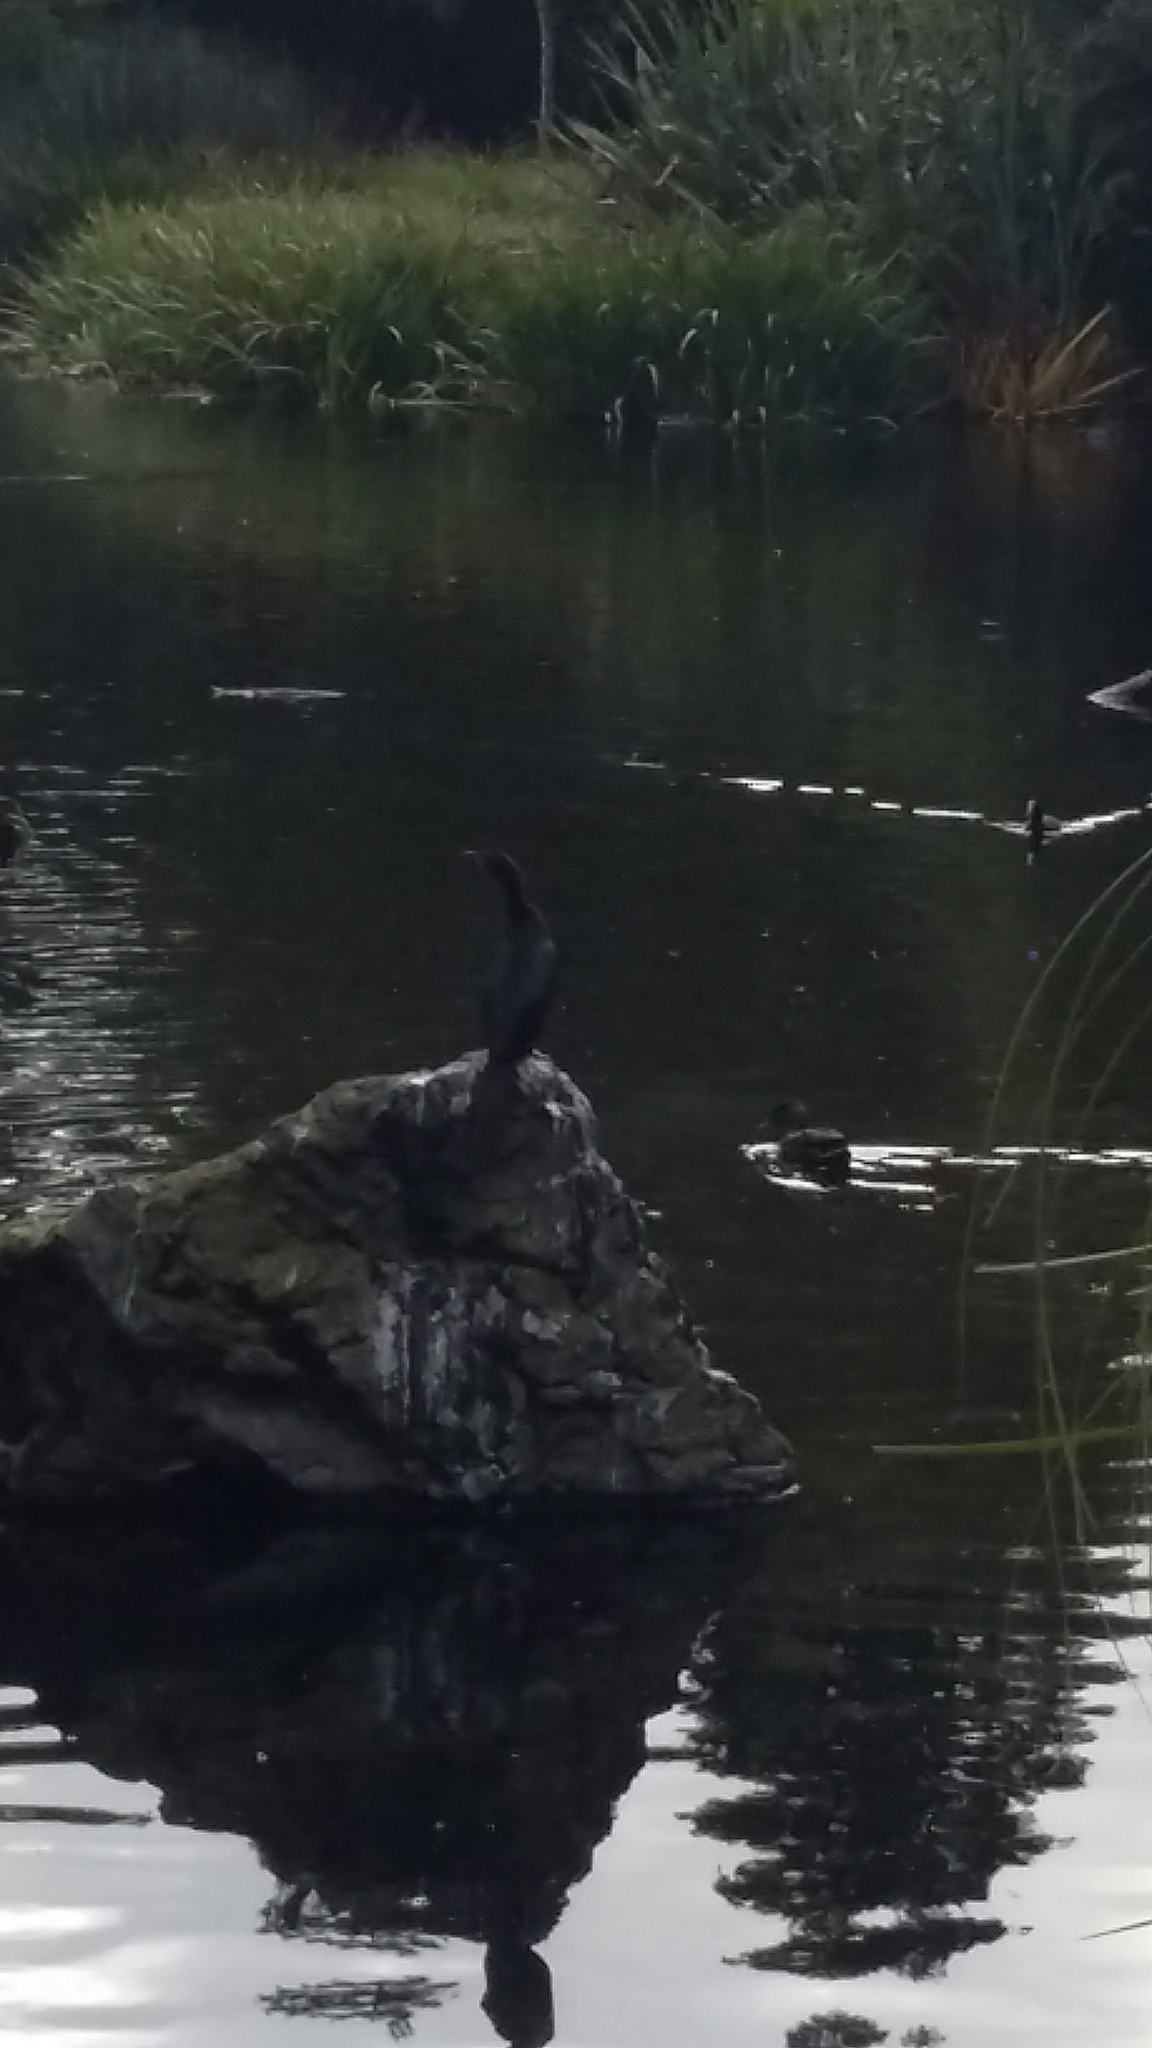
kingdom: Animalia
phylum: Chordata
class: Aves
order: Suliformes
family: Phalacrocoracidae
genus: Microcarbo
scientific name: Microcarbo melanoleucos
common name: Little pied cormorant
